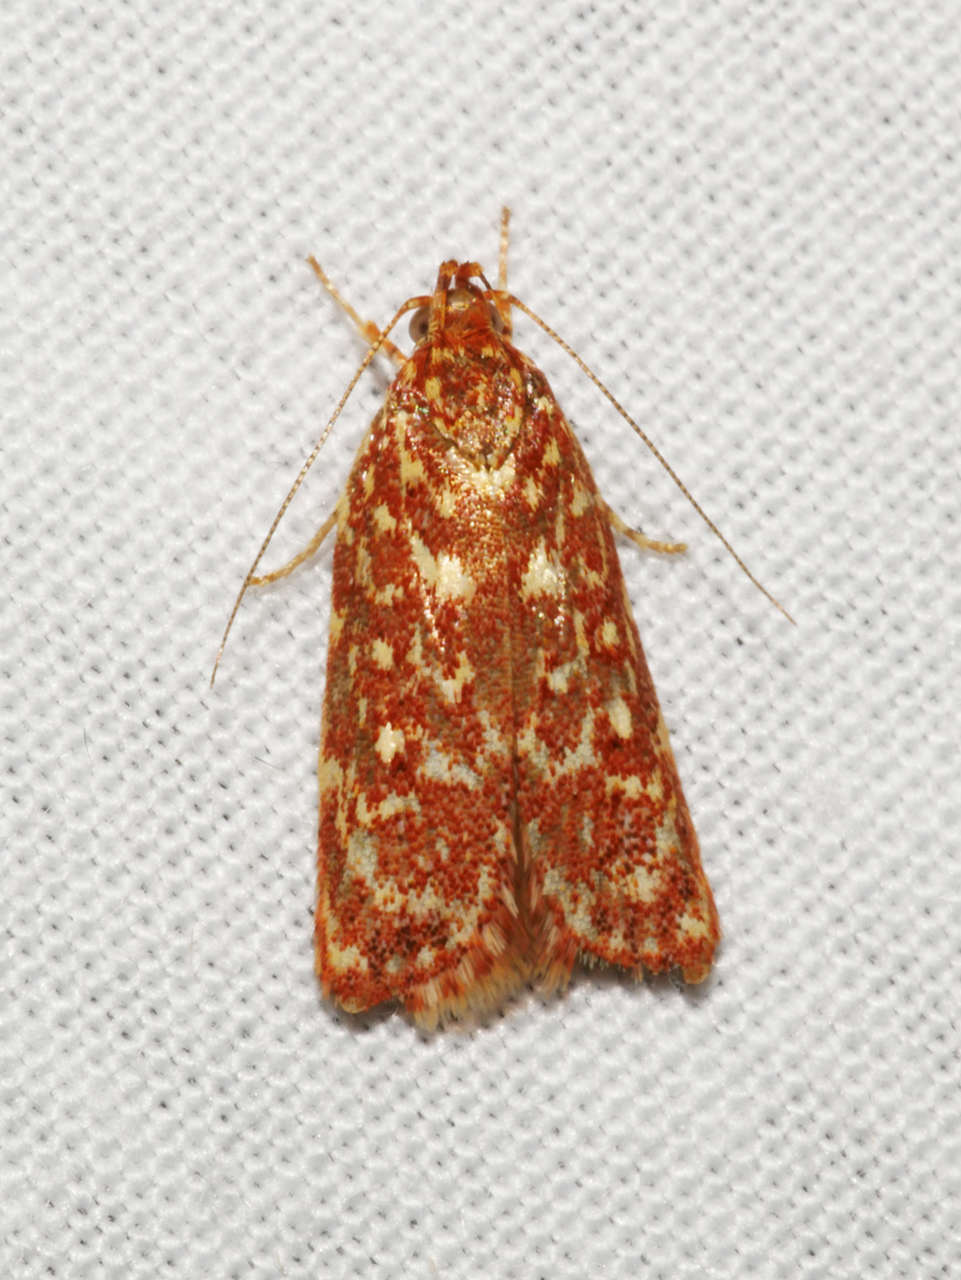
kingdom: Animalia
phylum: Arthropoda
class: Insecta
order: Lepidoptera
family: Oecophoridae
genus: Syringoseca
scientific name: Syringoseca rhodoxantha
